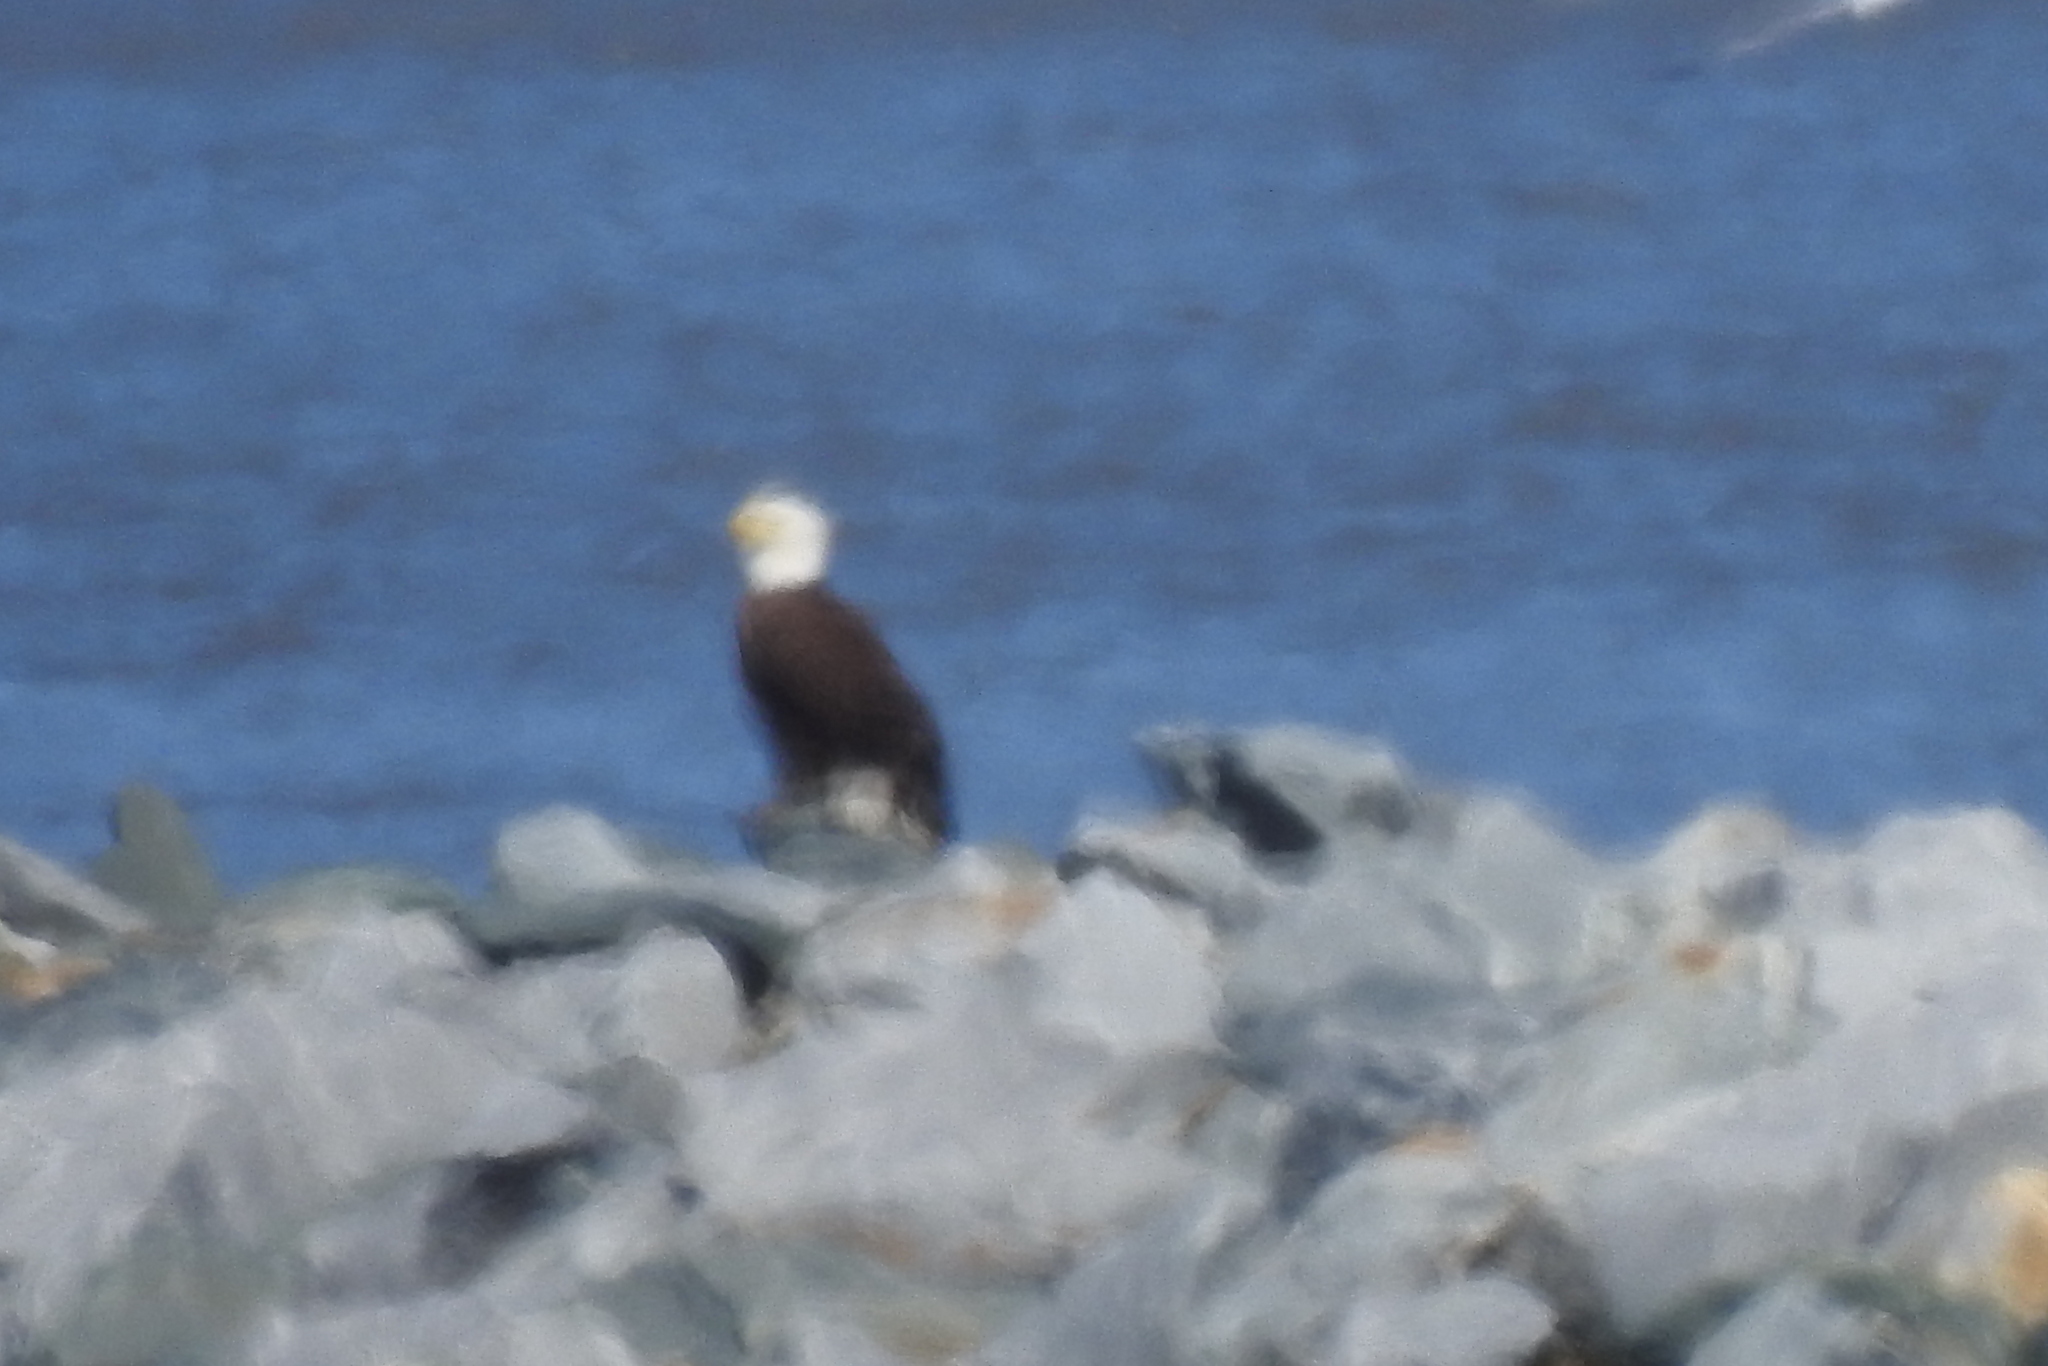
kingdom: Animalia
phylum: Chordata
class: Aves
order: Accipitriformes
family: Accipitridae
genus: Haliaeetus
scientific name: Haliaeetus leucocephalus
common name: Bald eagle
